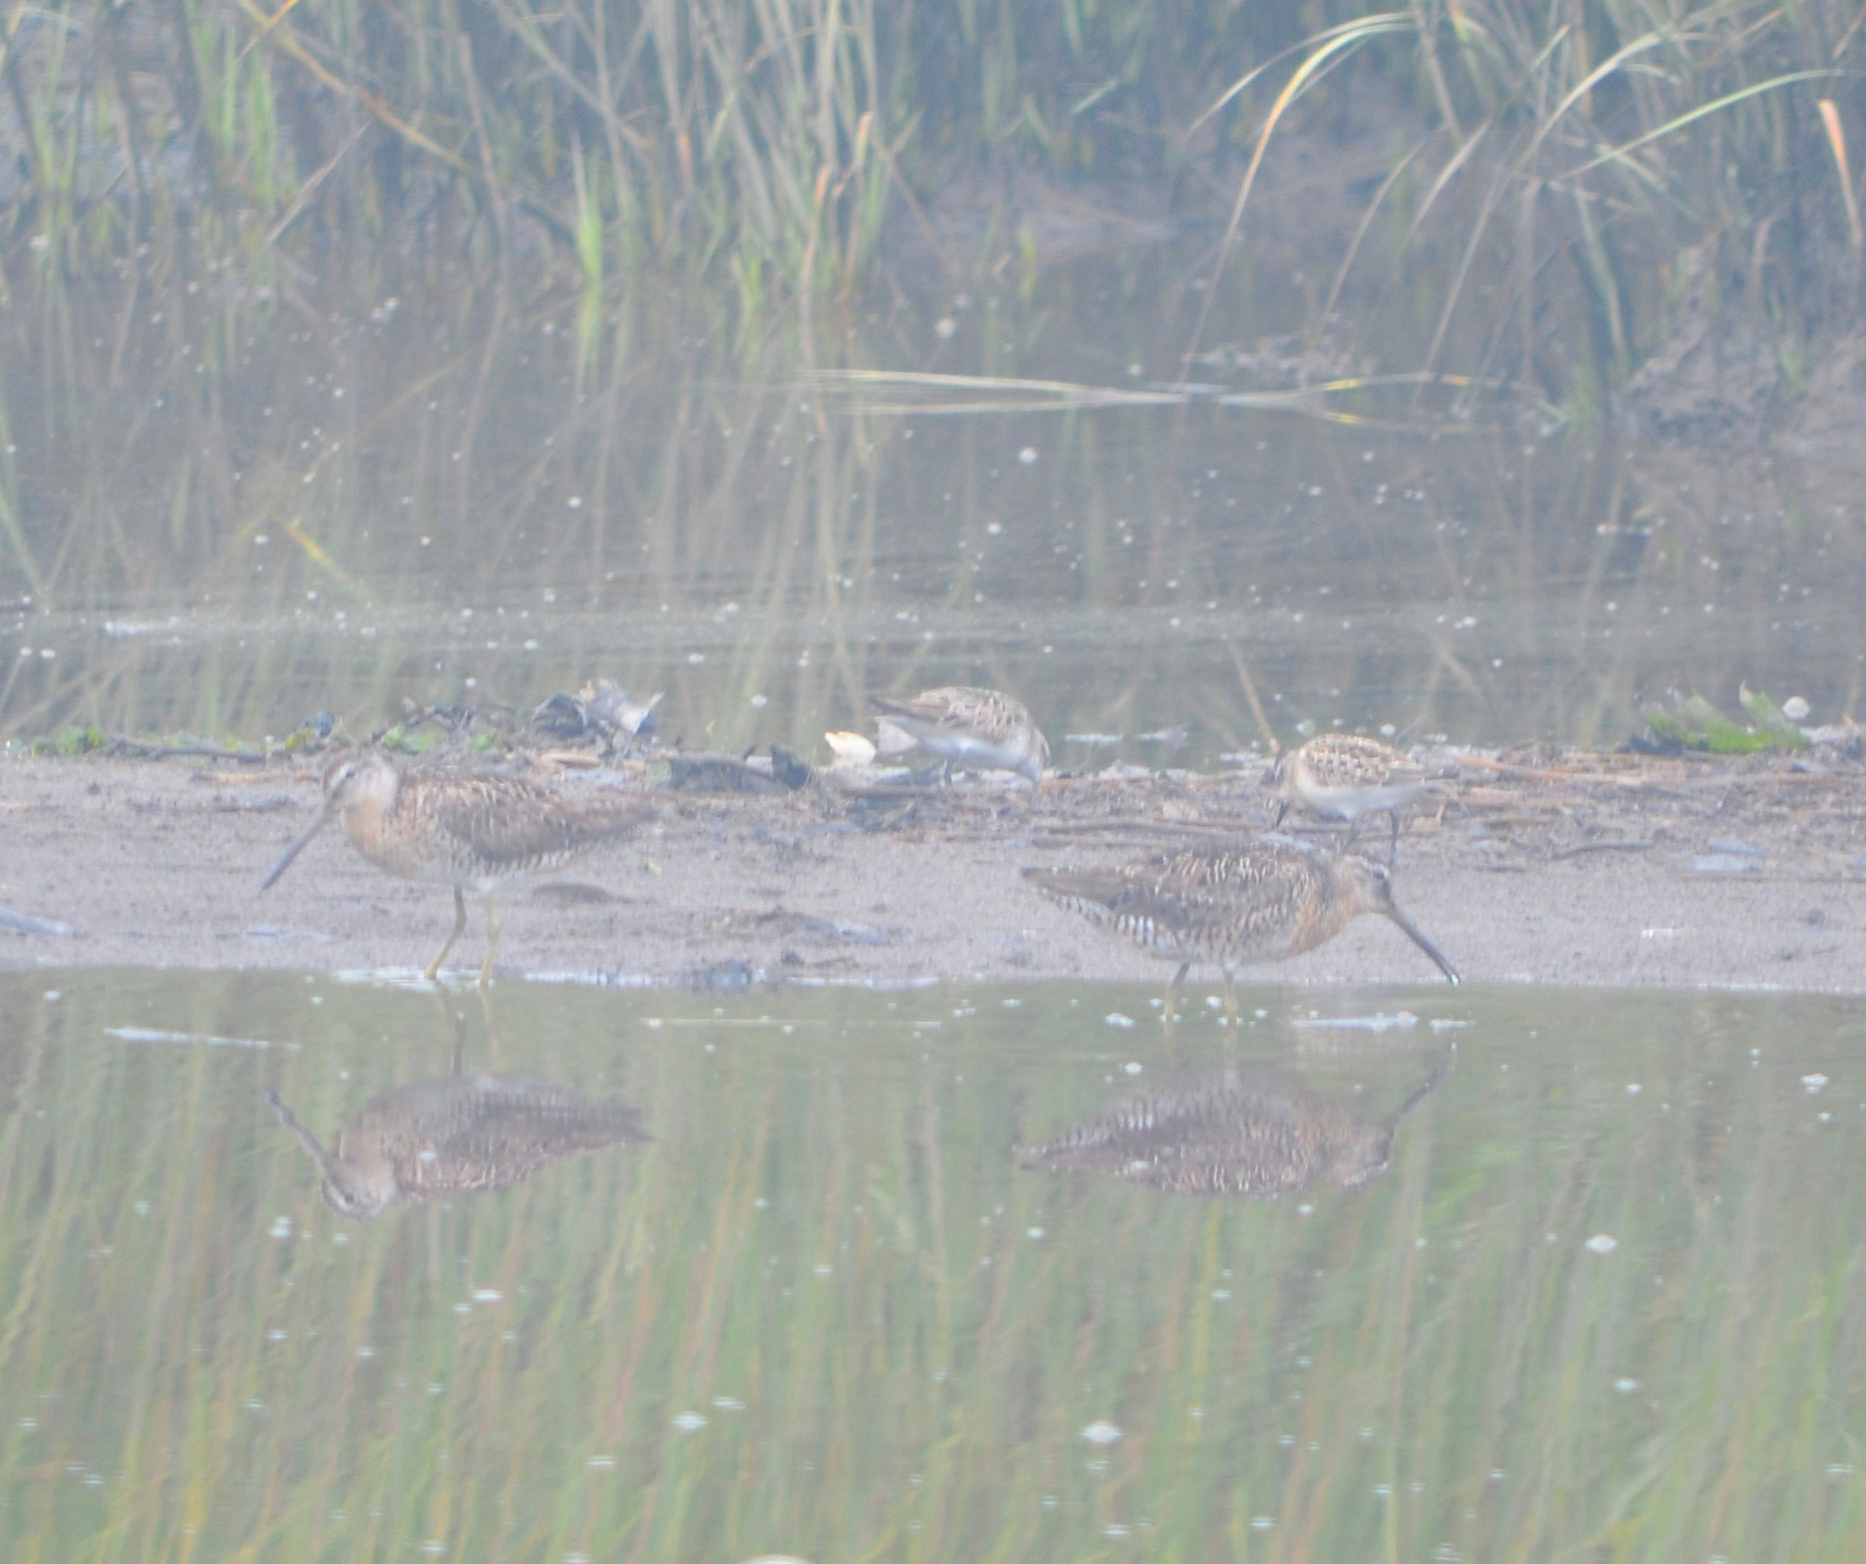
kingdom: Animalia
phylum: Chordata
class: Aves
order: Charadriiformes
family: Scolopacidae
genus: Limnodromus
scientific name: Limnodromus griseus
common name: Short-billed dowitcher
